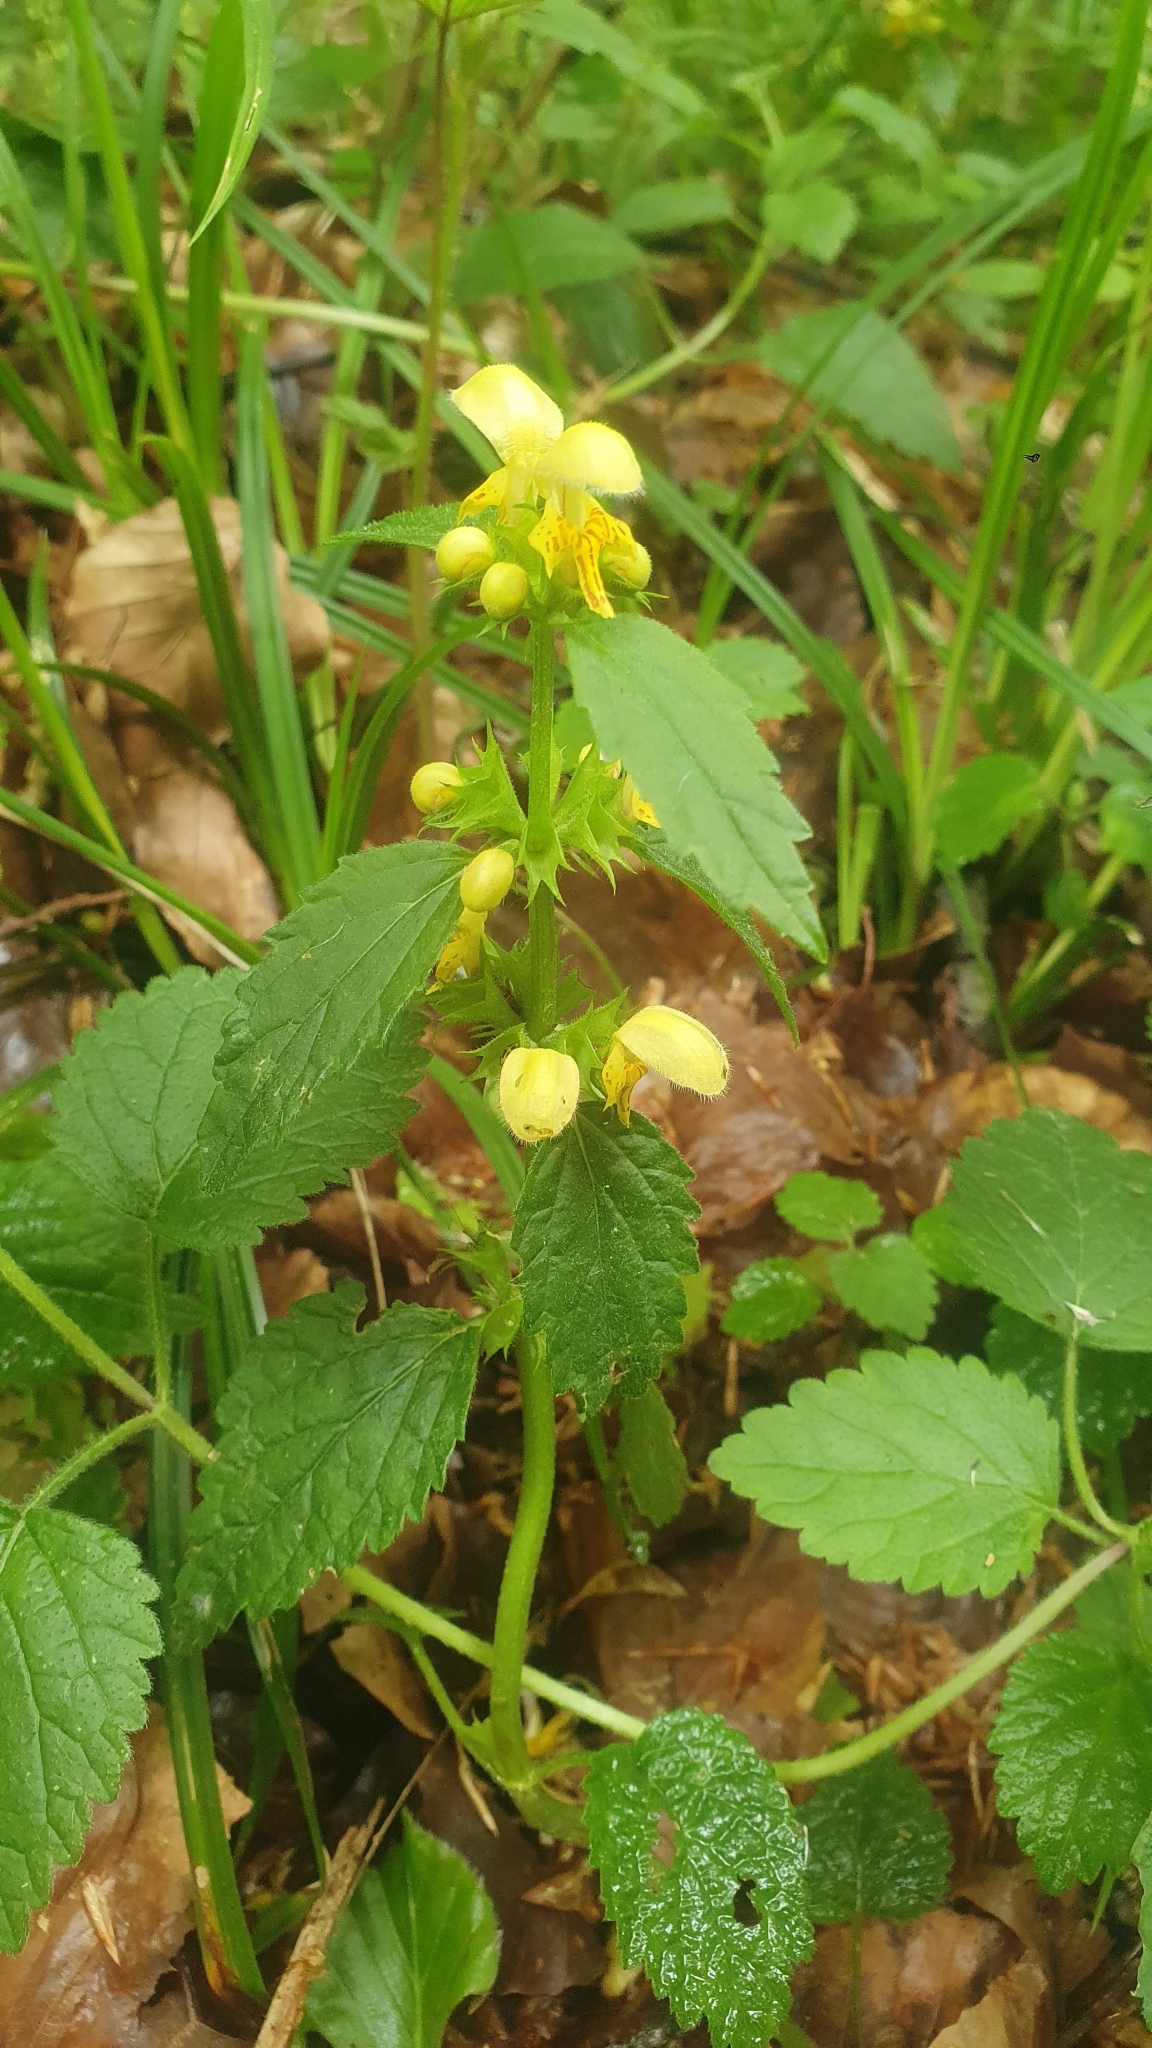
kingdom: Plantae
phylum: Tracheophyta
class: Magnoliopsida
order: Lamiales
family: Lamiaceae
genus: Lamium
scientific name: Lamium galeobdolon
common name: Yellow archangel
